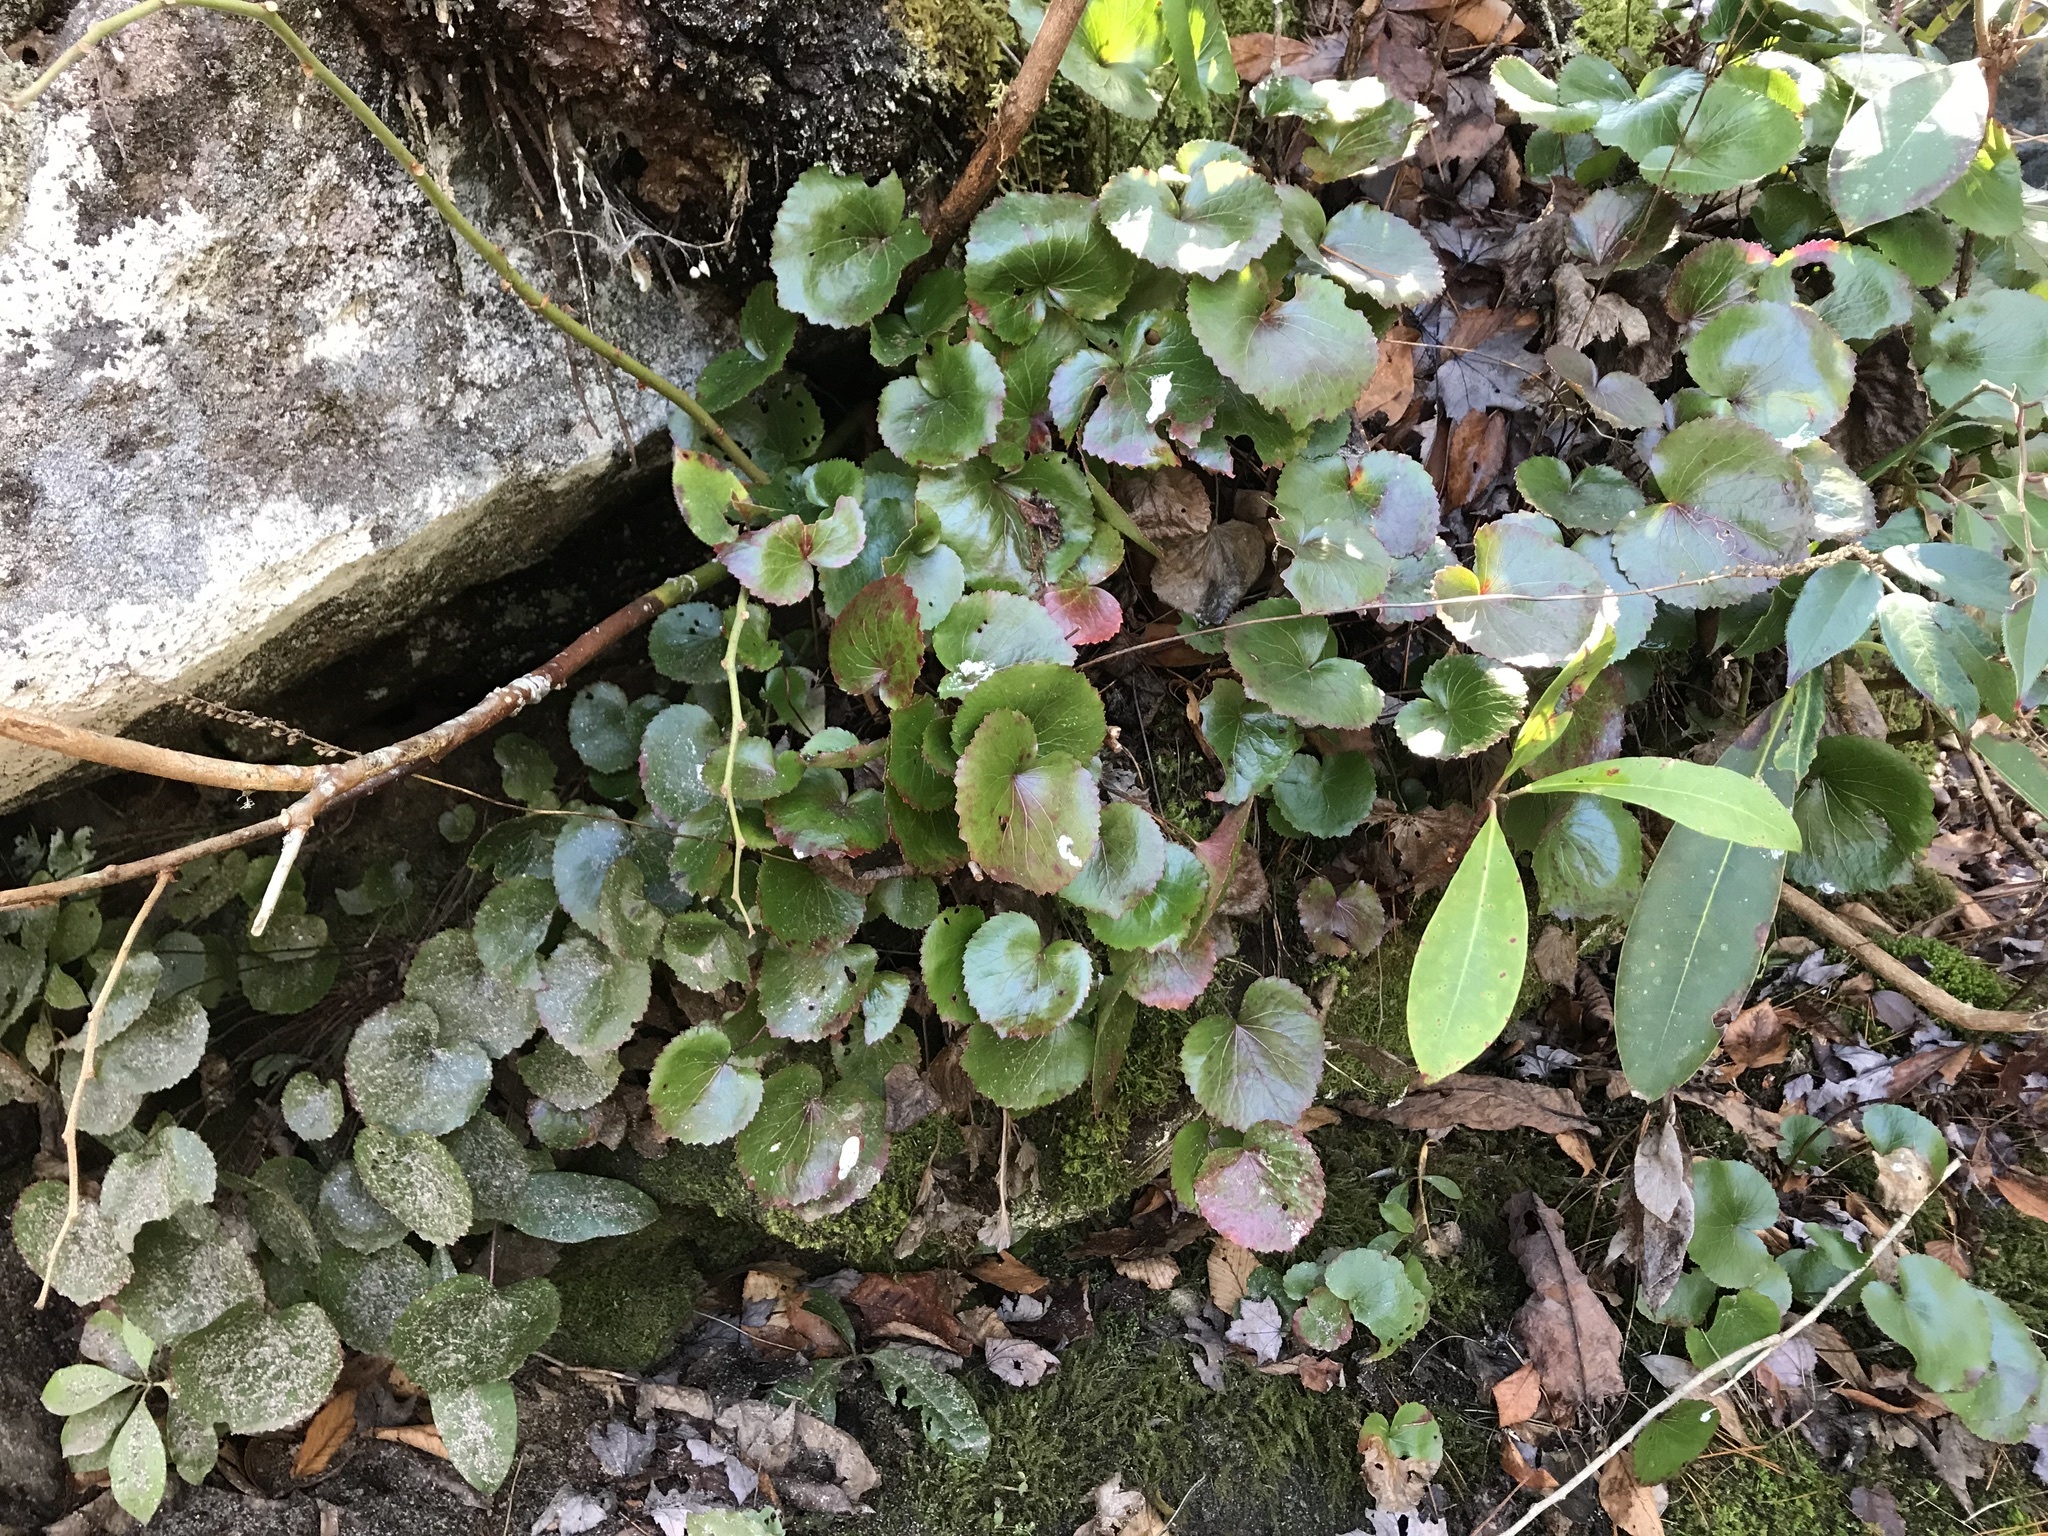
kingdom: Plantae
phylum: Tracheophyta
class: Magnoliopsida
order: Ericales
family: Diapensiaceae
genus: Galax
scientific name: Galax urceolata
